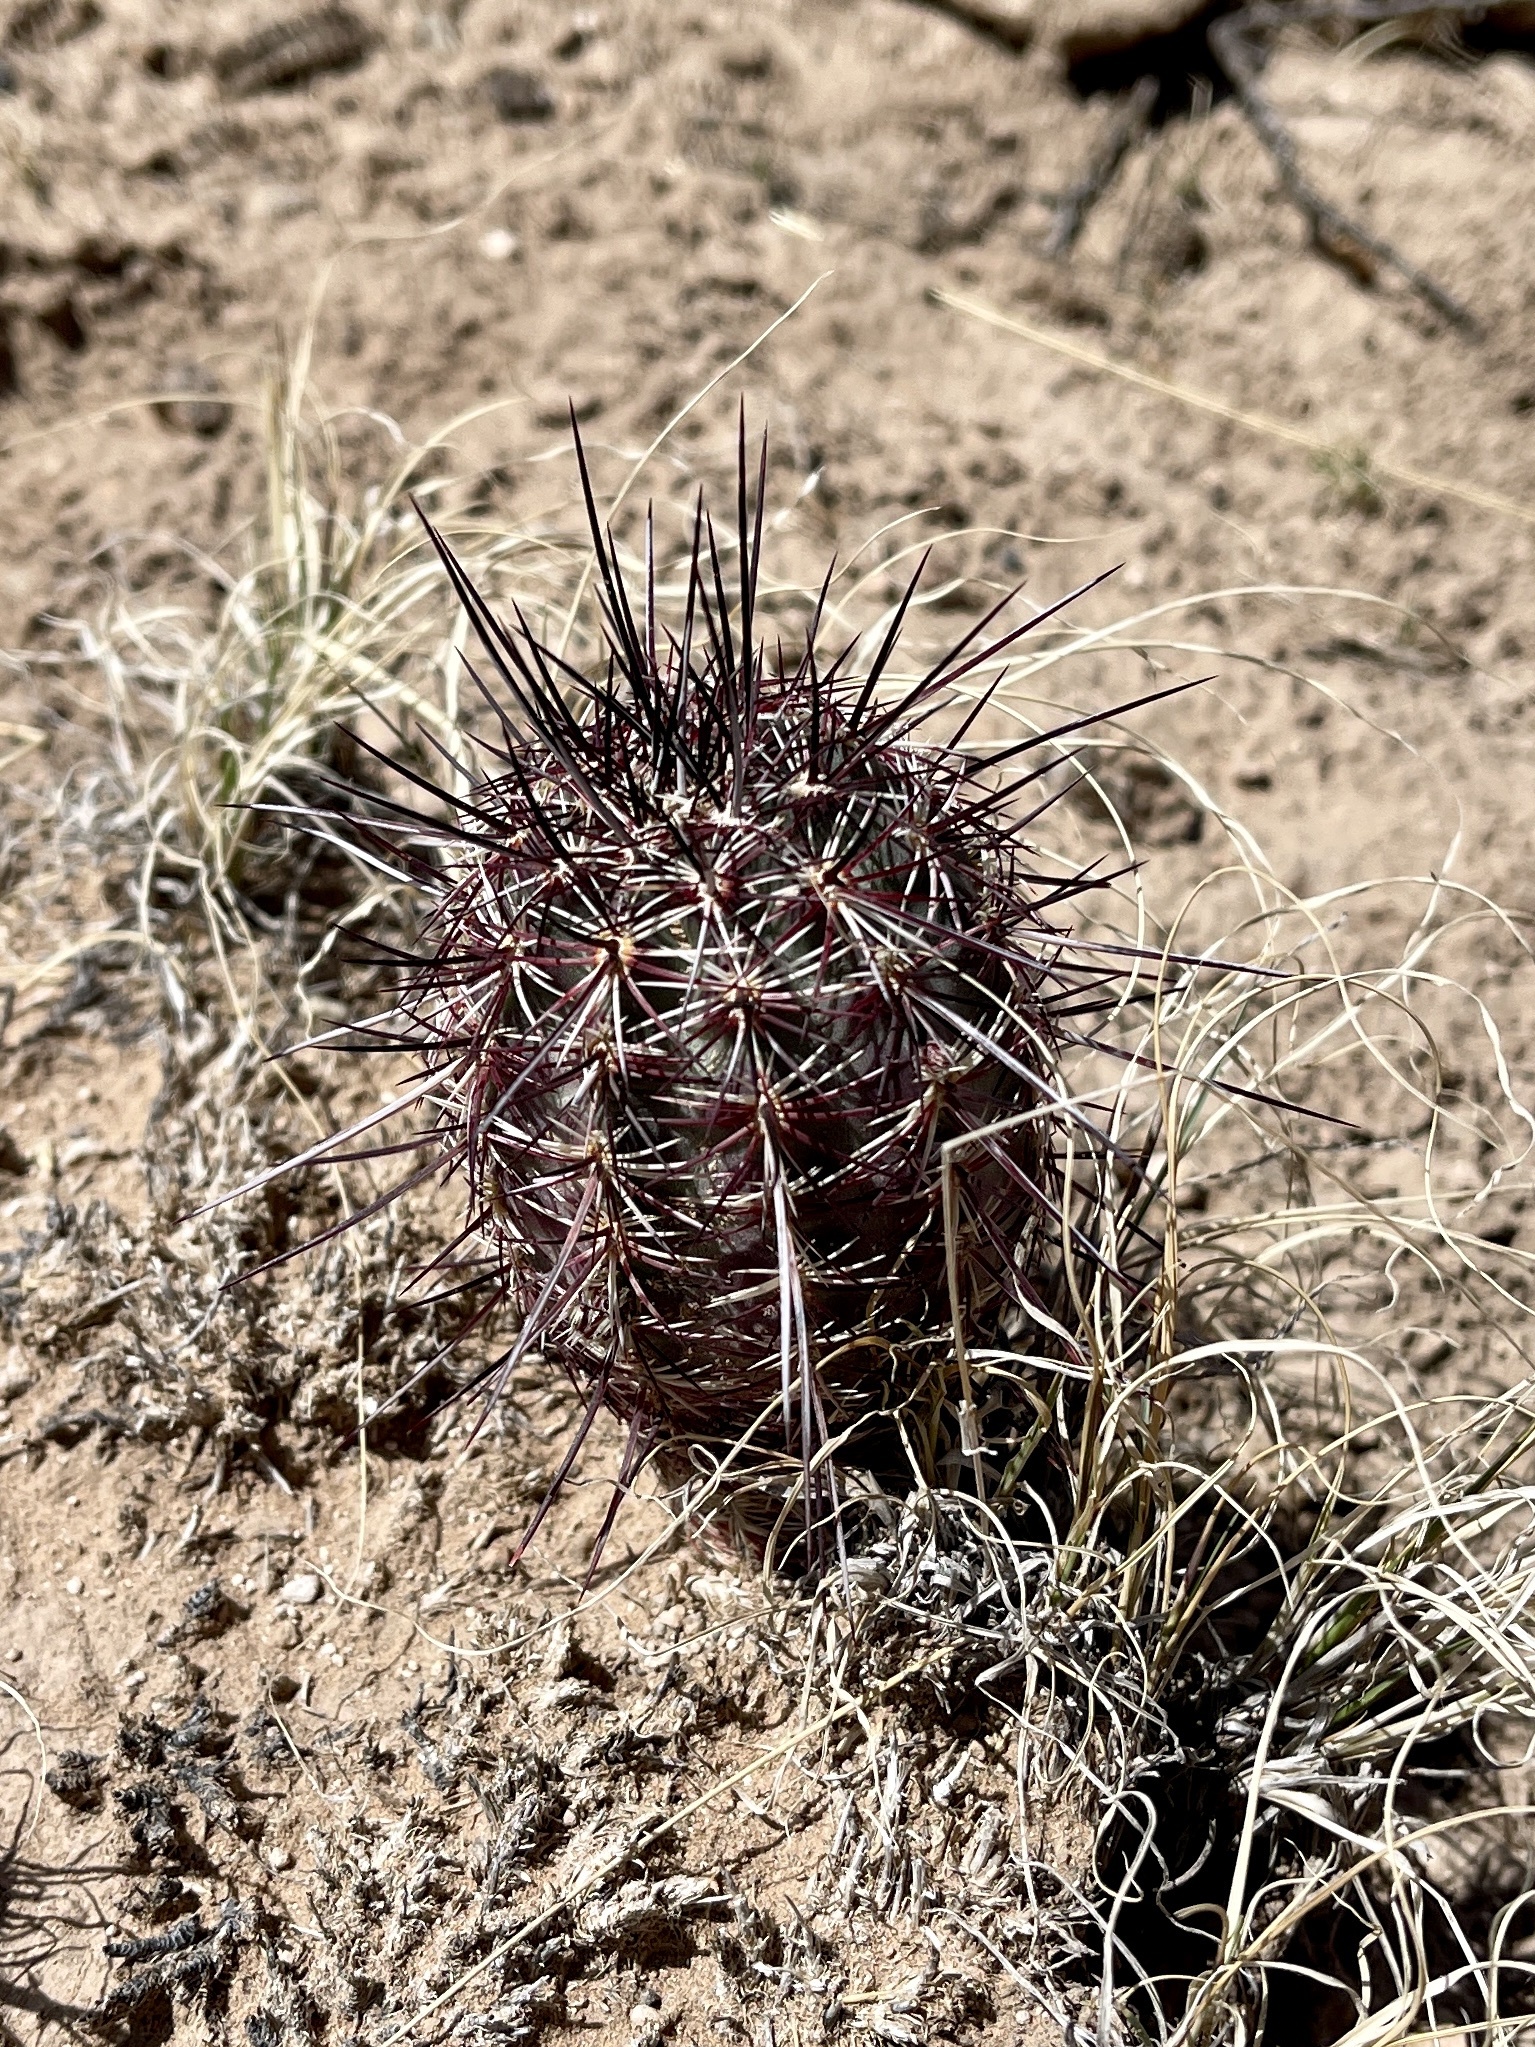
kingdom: Plantae
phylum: Tracheophyta
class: Magnoliopsida
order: Caryophyllales
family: Cactaceae
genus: Echinocereus
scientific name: Echinocereus viridiflorus
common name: Nylon hedgehog cactus
